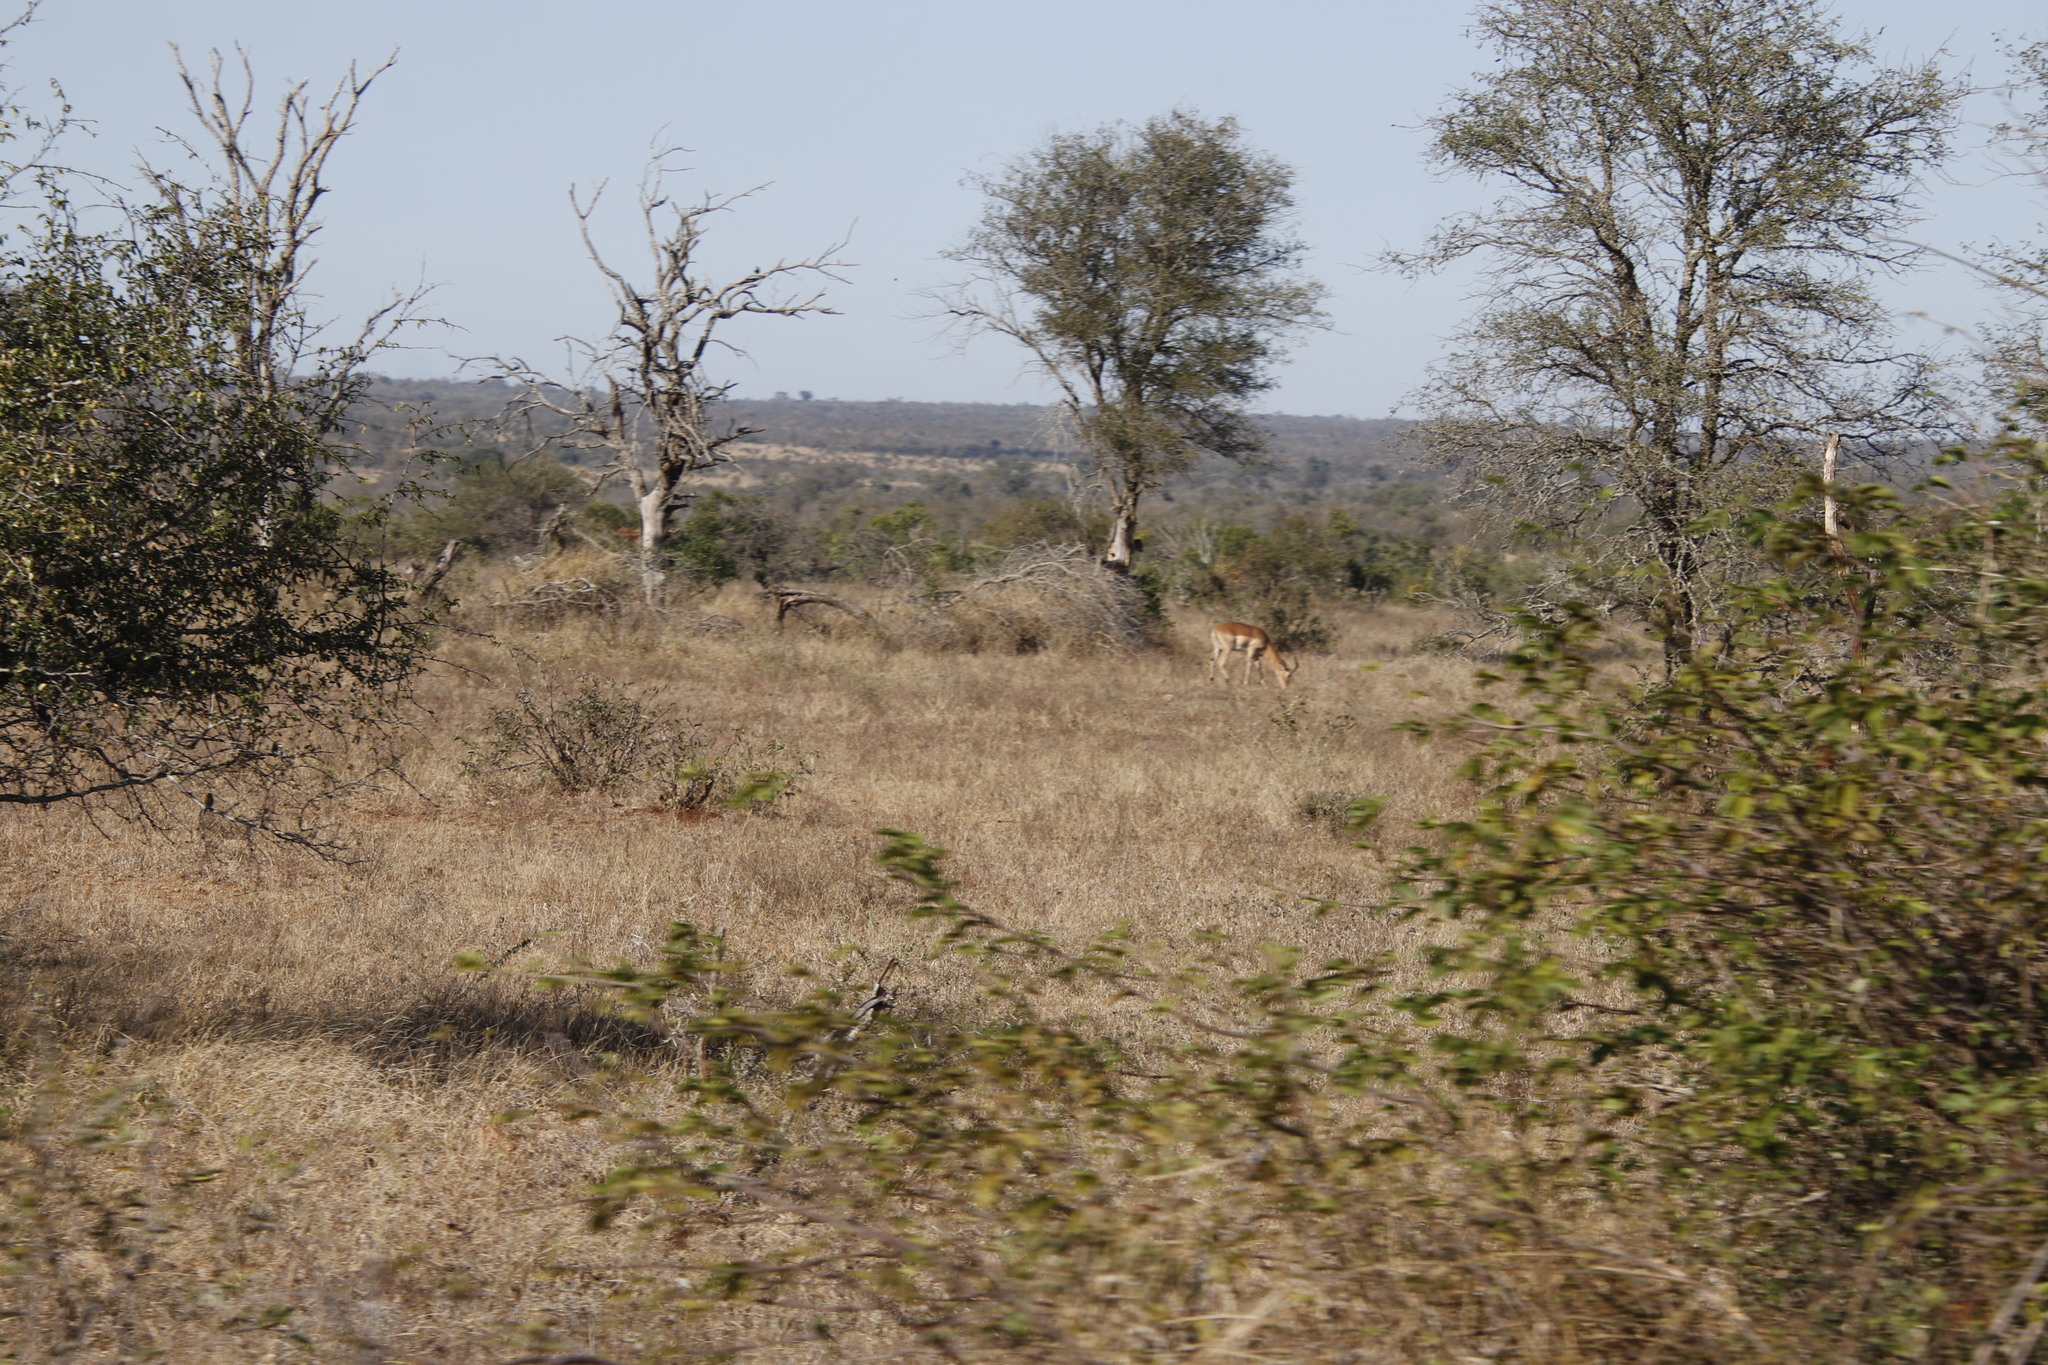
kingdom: Animalia
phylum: Chordata
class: Mammalia
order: Artiodactyla
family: Bovidae
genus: Aepyceros
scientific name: Aepyceros melampus
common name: Impala
